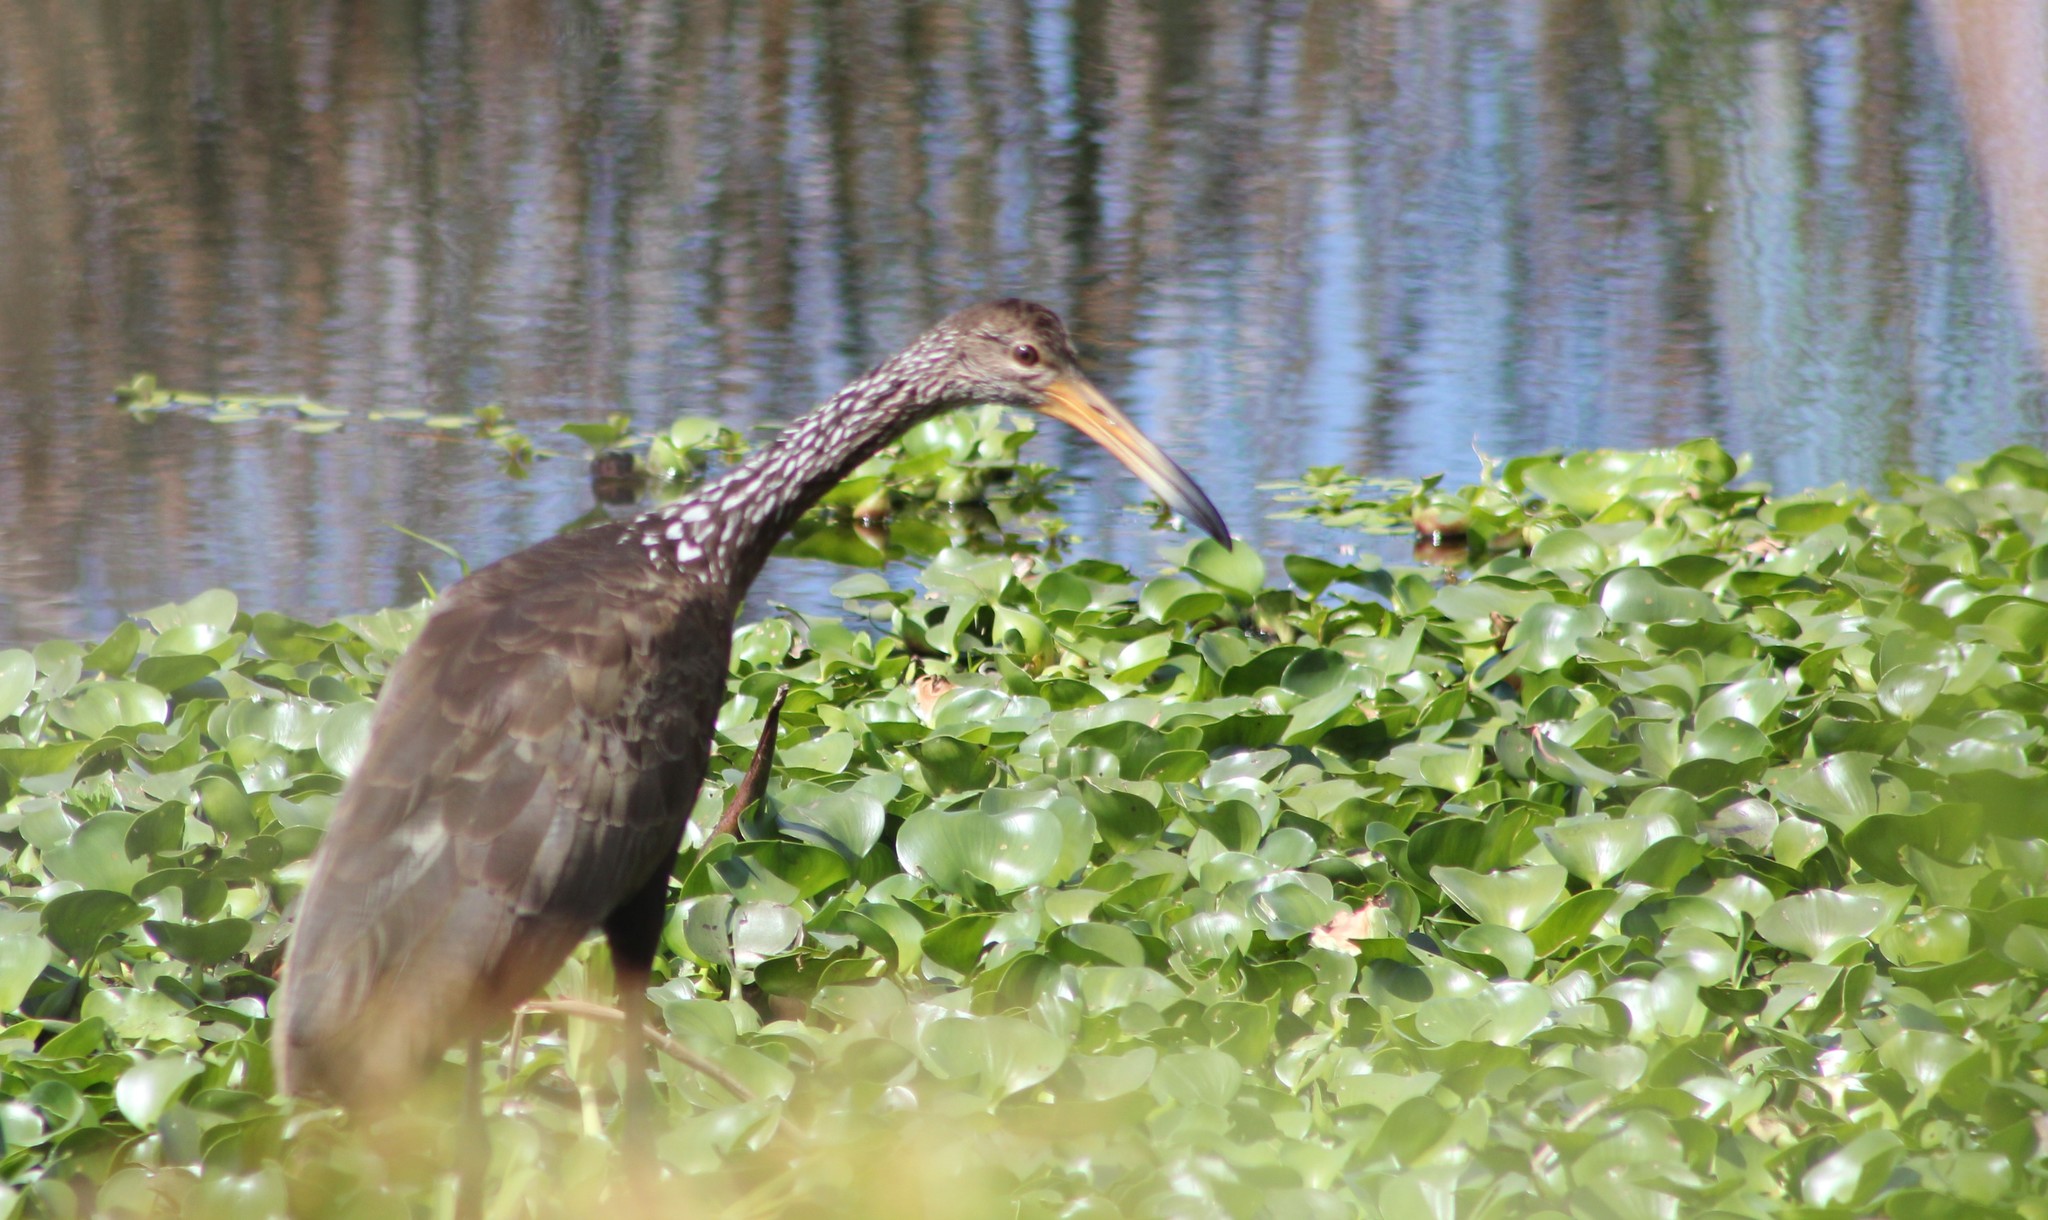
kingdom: Animalia
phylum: Chordata
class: Aves
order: Gruiformes
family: Aramidae
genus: Aramus
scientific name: Aramus guarauna
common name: Limpkin
